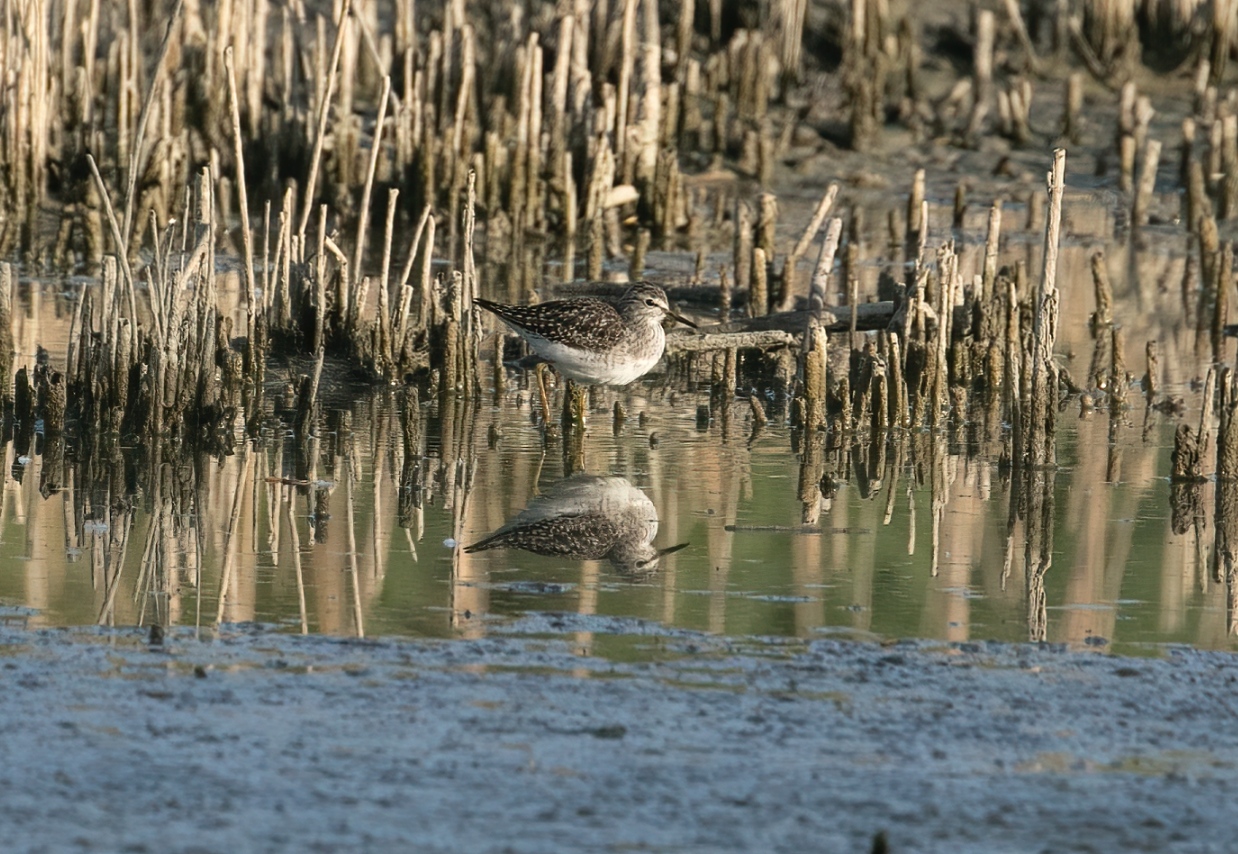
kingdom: Animalia
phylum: Chordata
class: Aves
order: Charadriiformes
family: Scolopacidae
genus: Tringa
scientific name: Tringa glareola
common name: Wood sandpiper
